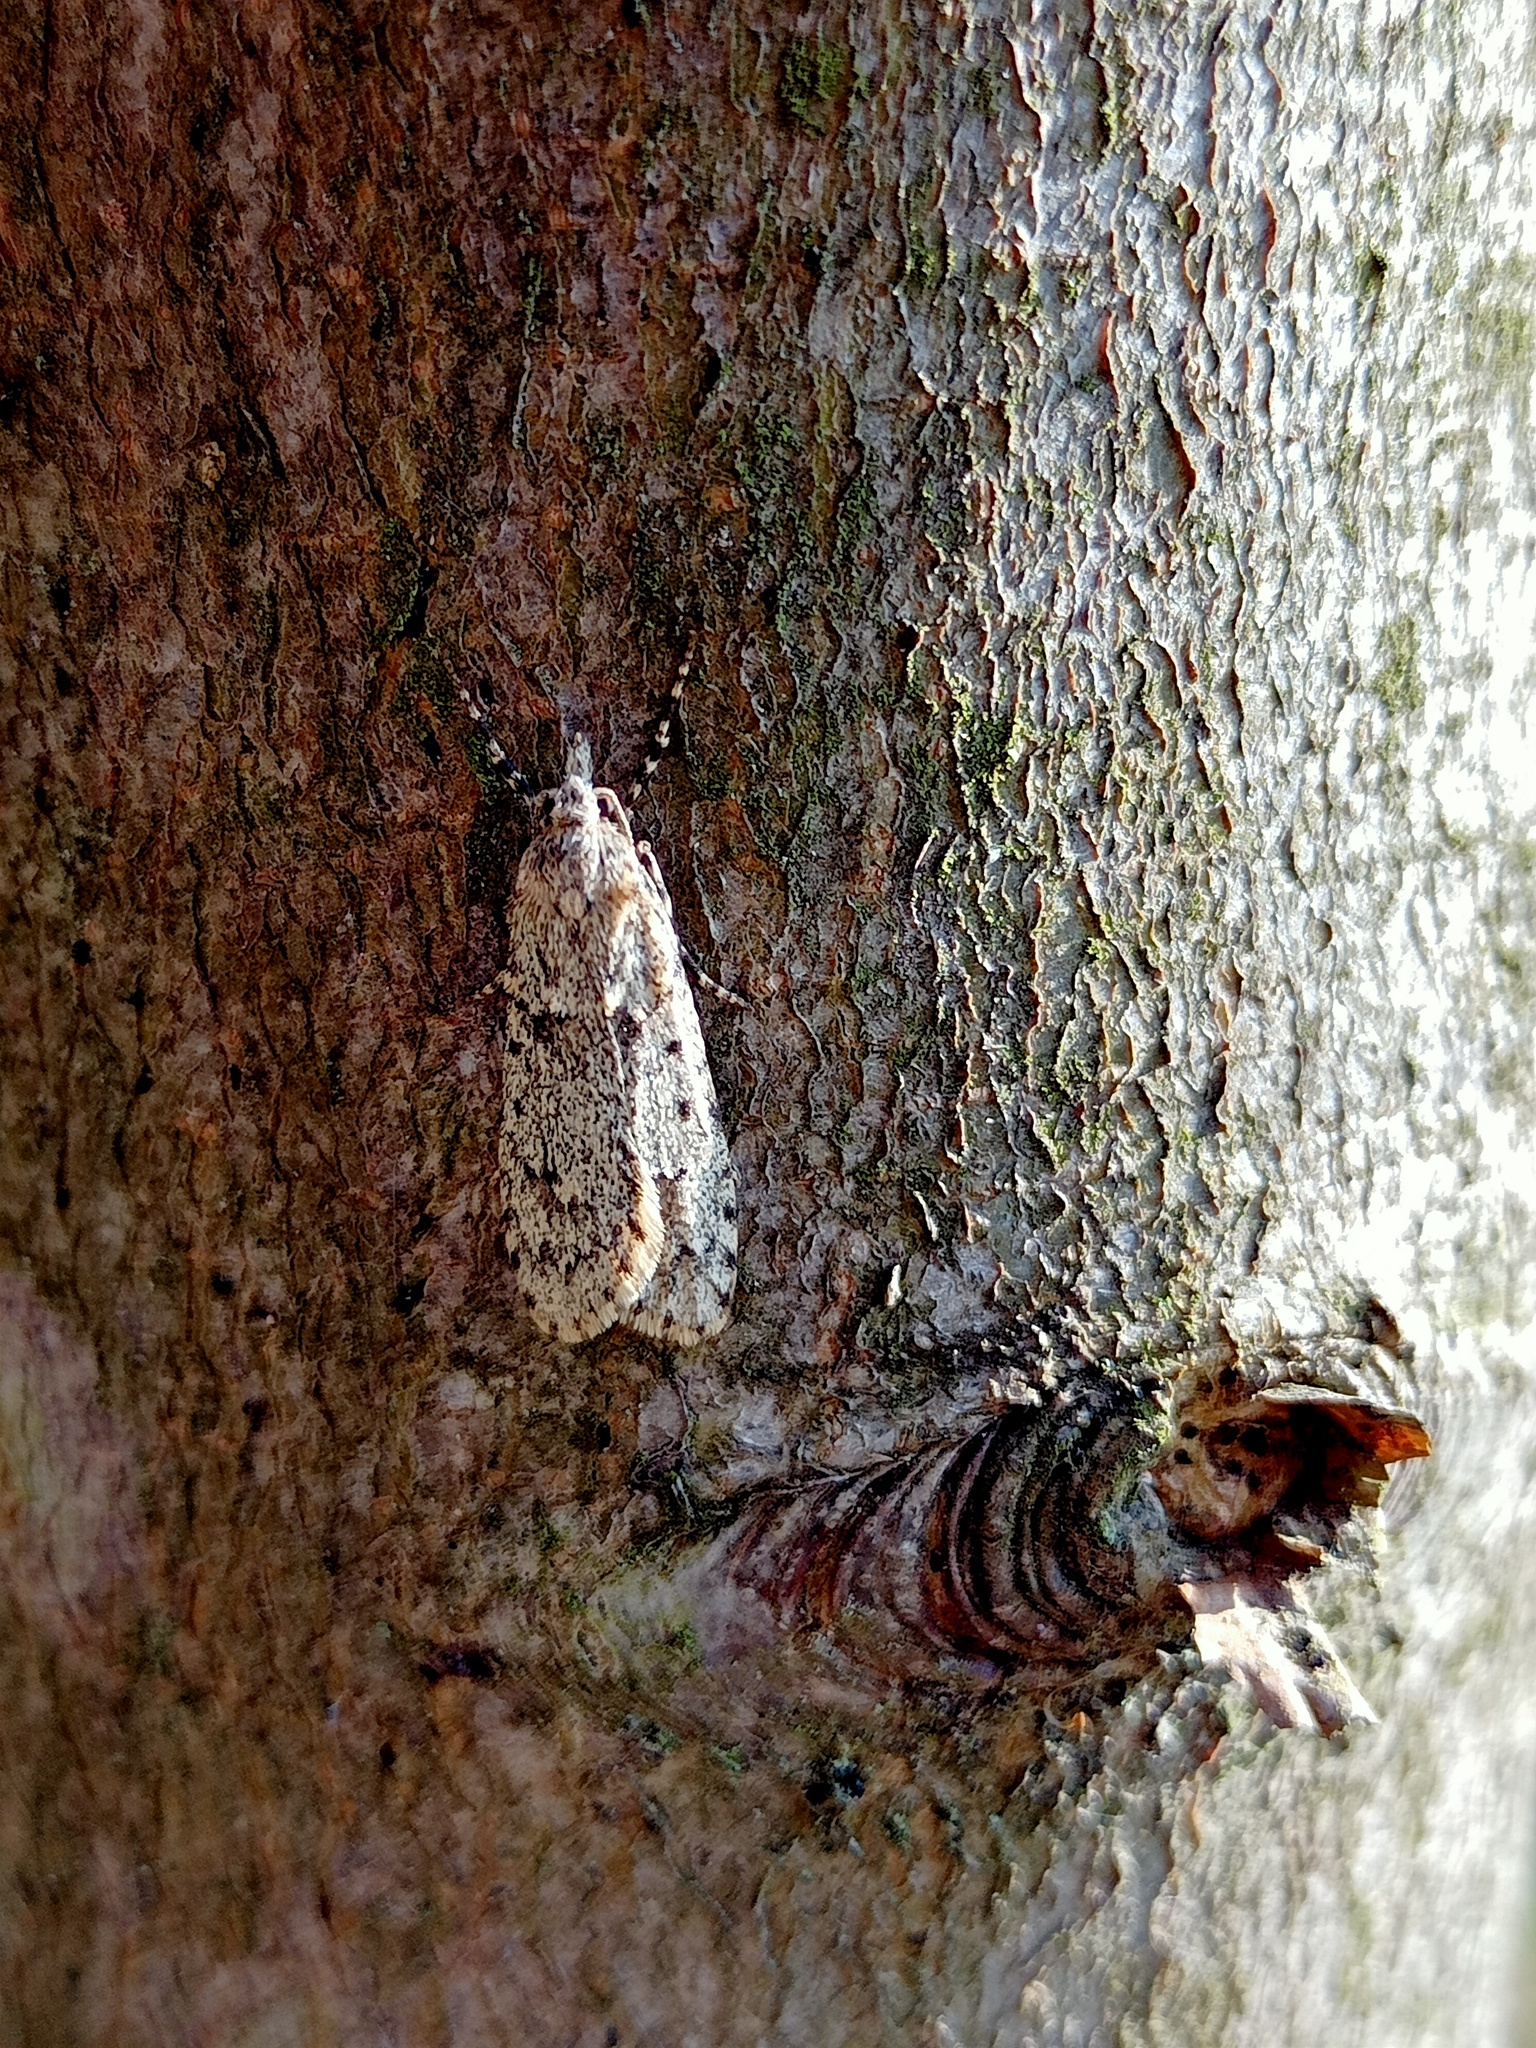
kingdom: Animalia
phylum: Arthropoda
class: Insecta
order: Lepidoptera
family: Lypusidae
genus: Diurnea
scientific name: Diurnea fagella
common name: March tubic
